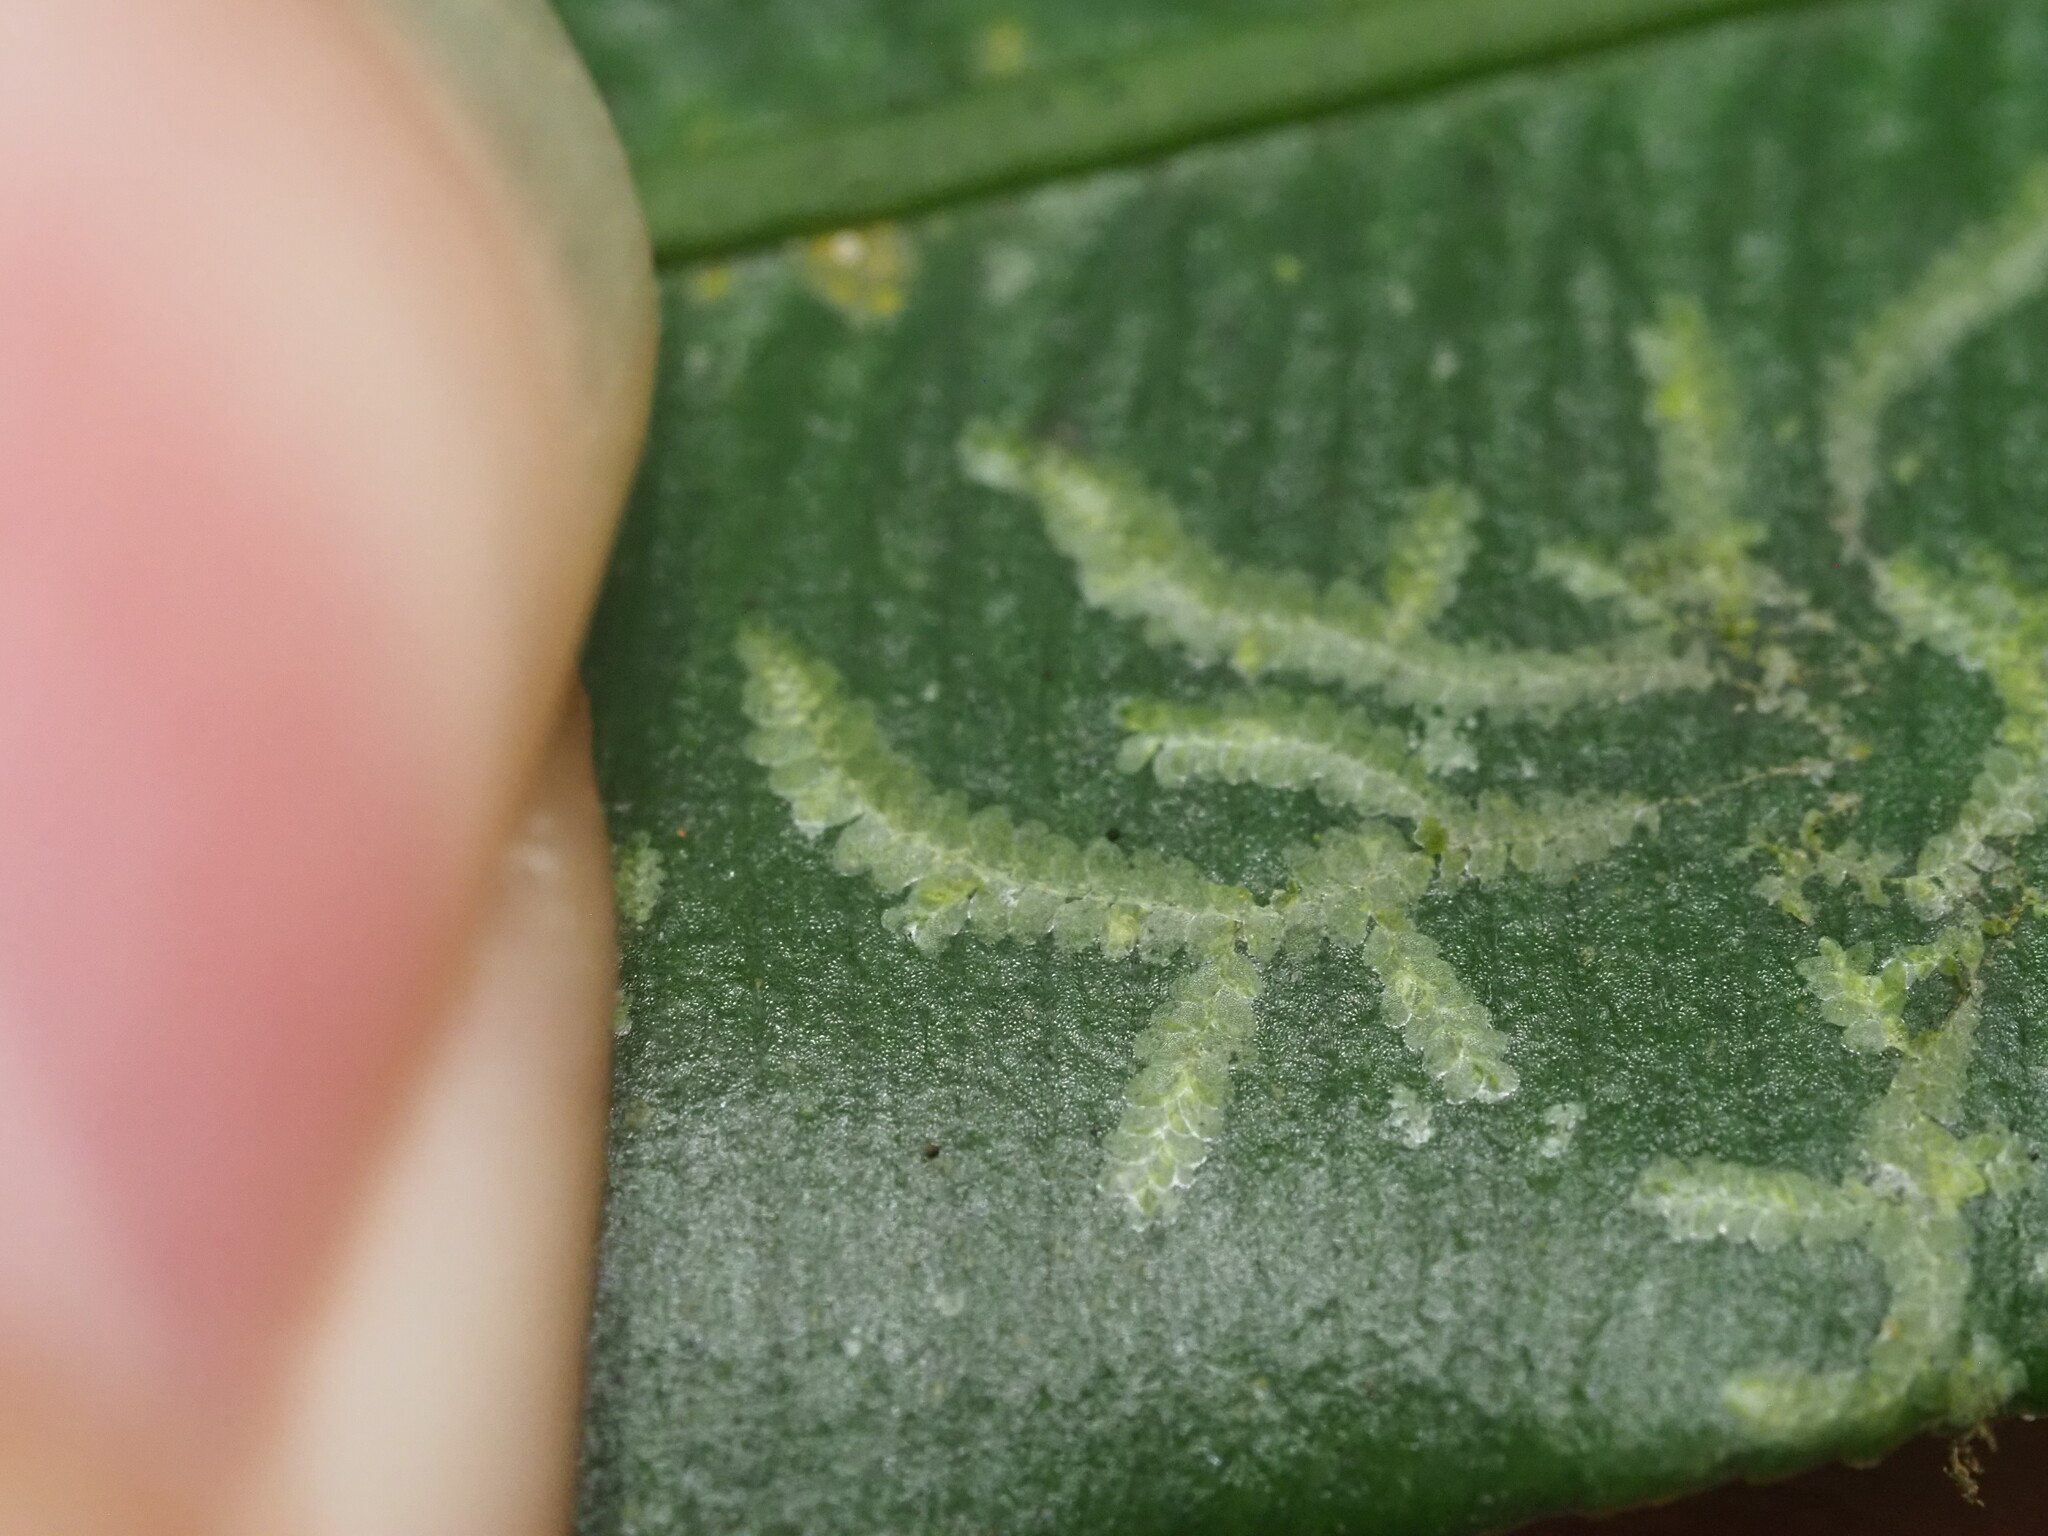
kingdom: Plantae
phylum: Marchantiophyta
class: Jungermanniopsida
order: Porellales
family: Lejeuneaceae
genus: Cololejeunea
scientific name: Cololejeunea planissima
